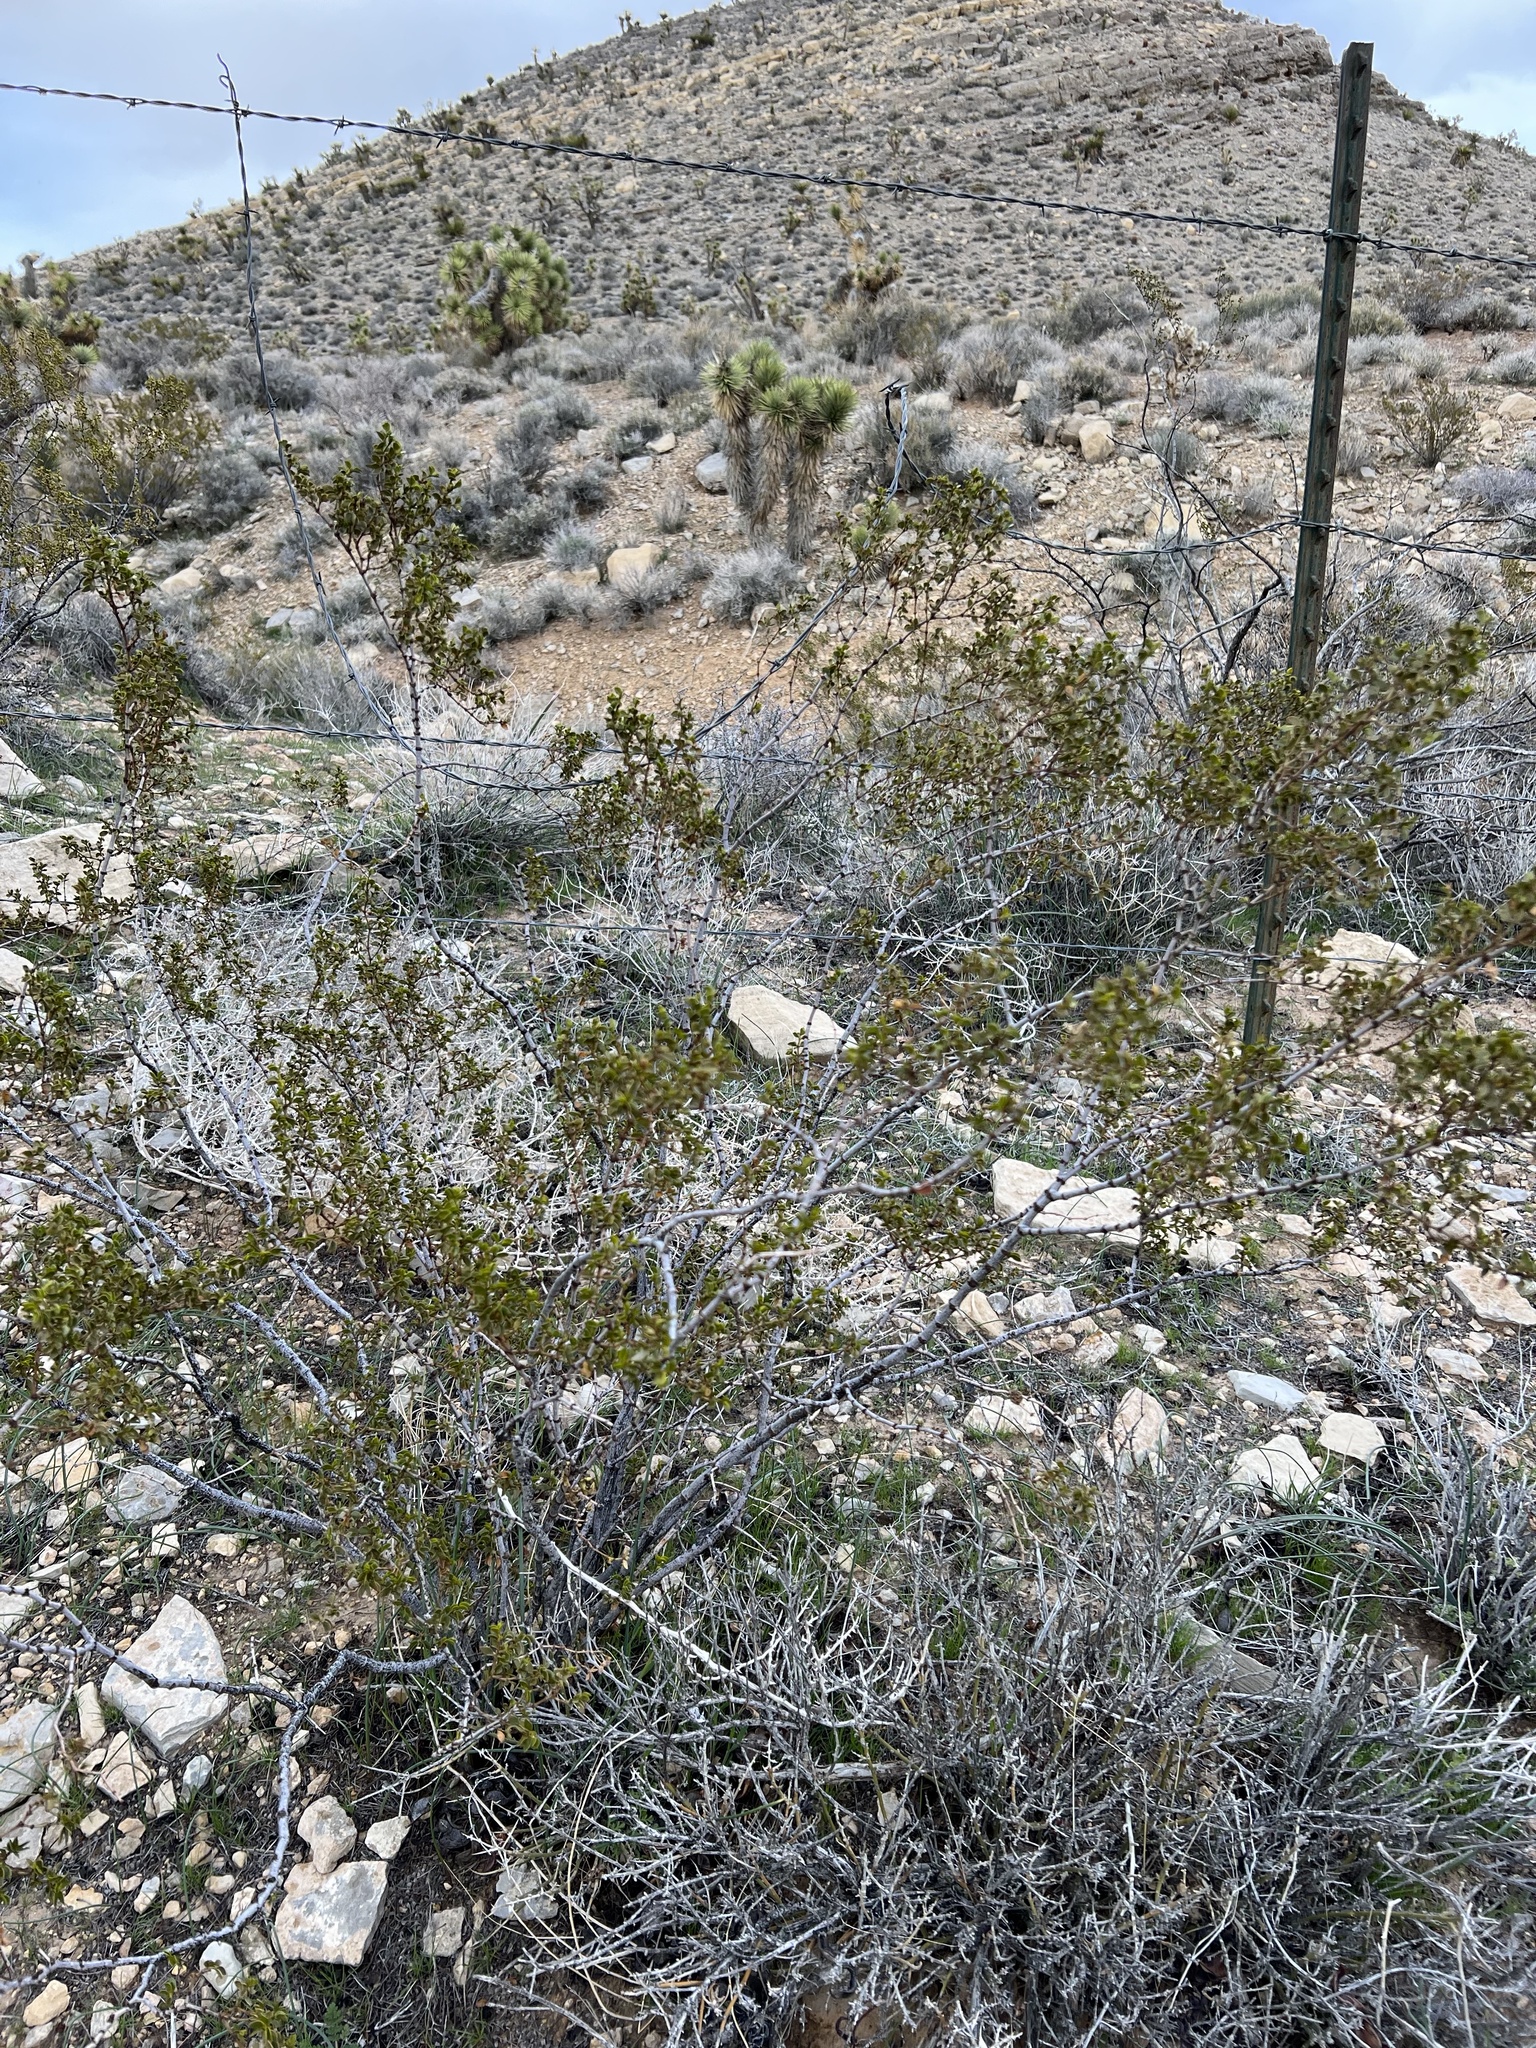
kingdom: Plantae
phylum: Tracheophyta
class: Magnoliopsida
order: Zygophyllales
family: Zygophyllaceae
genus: Larrea
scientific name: Larrea tridentata
